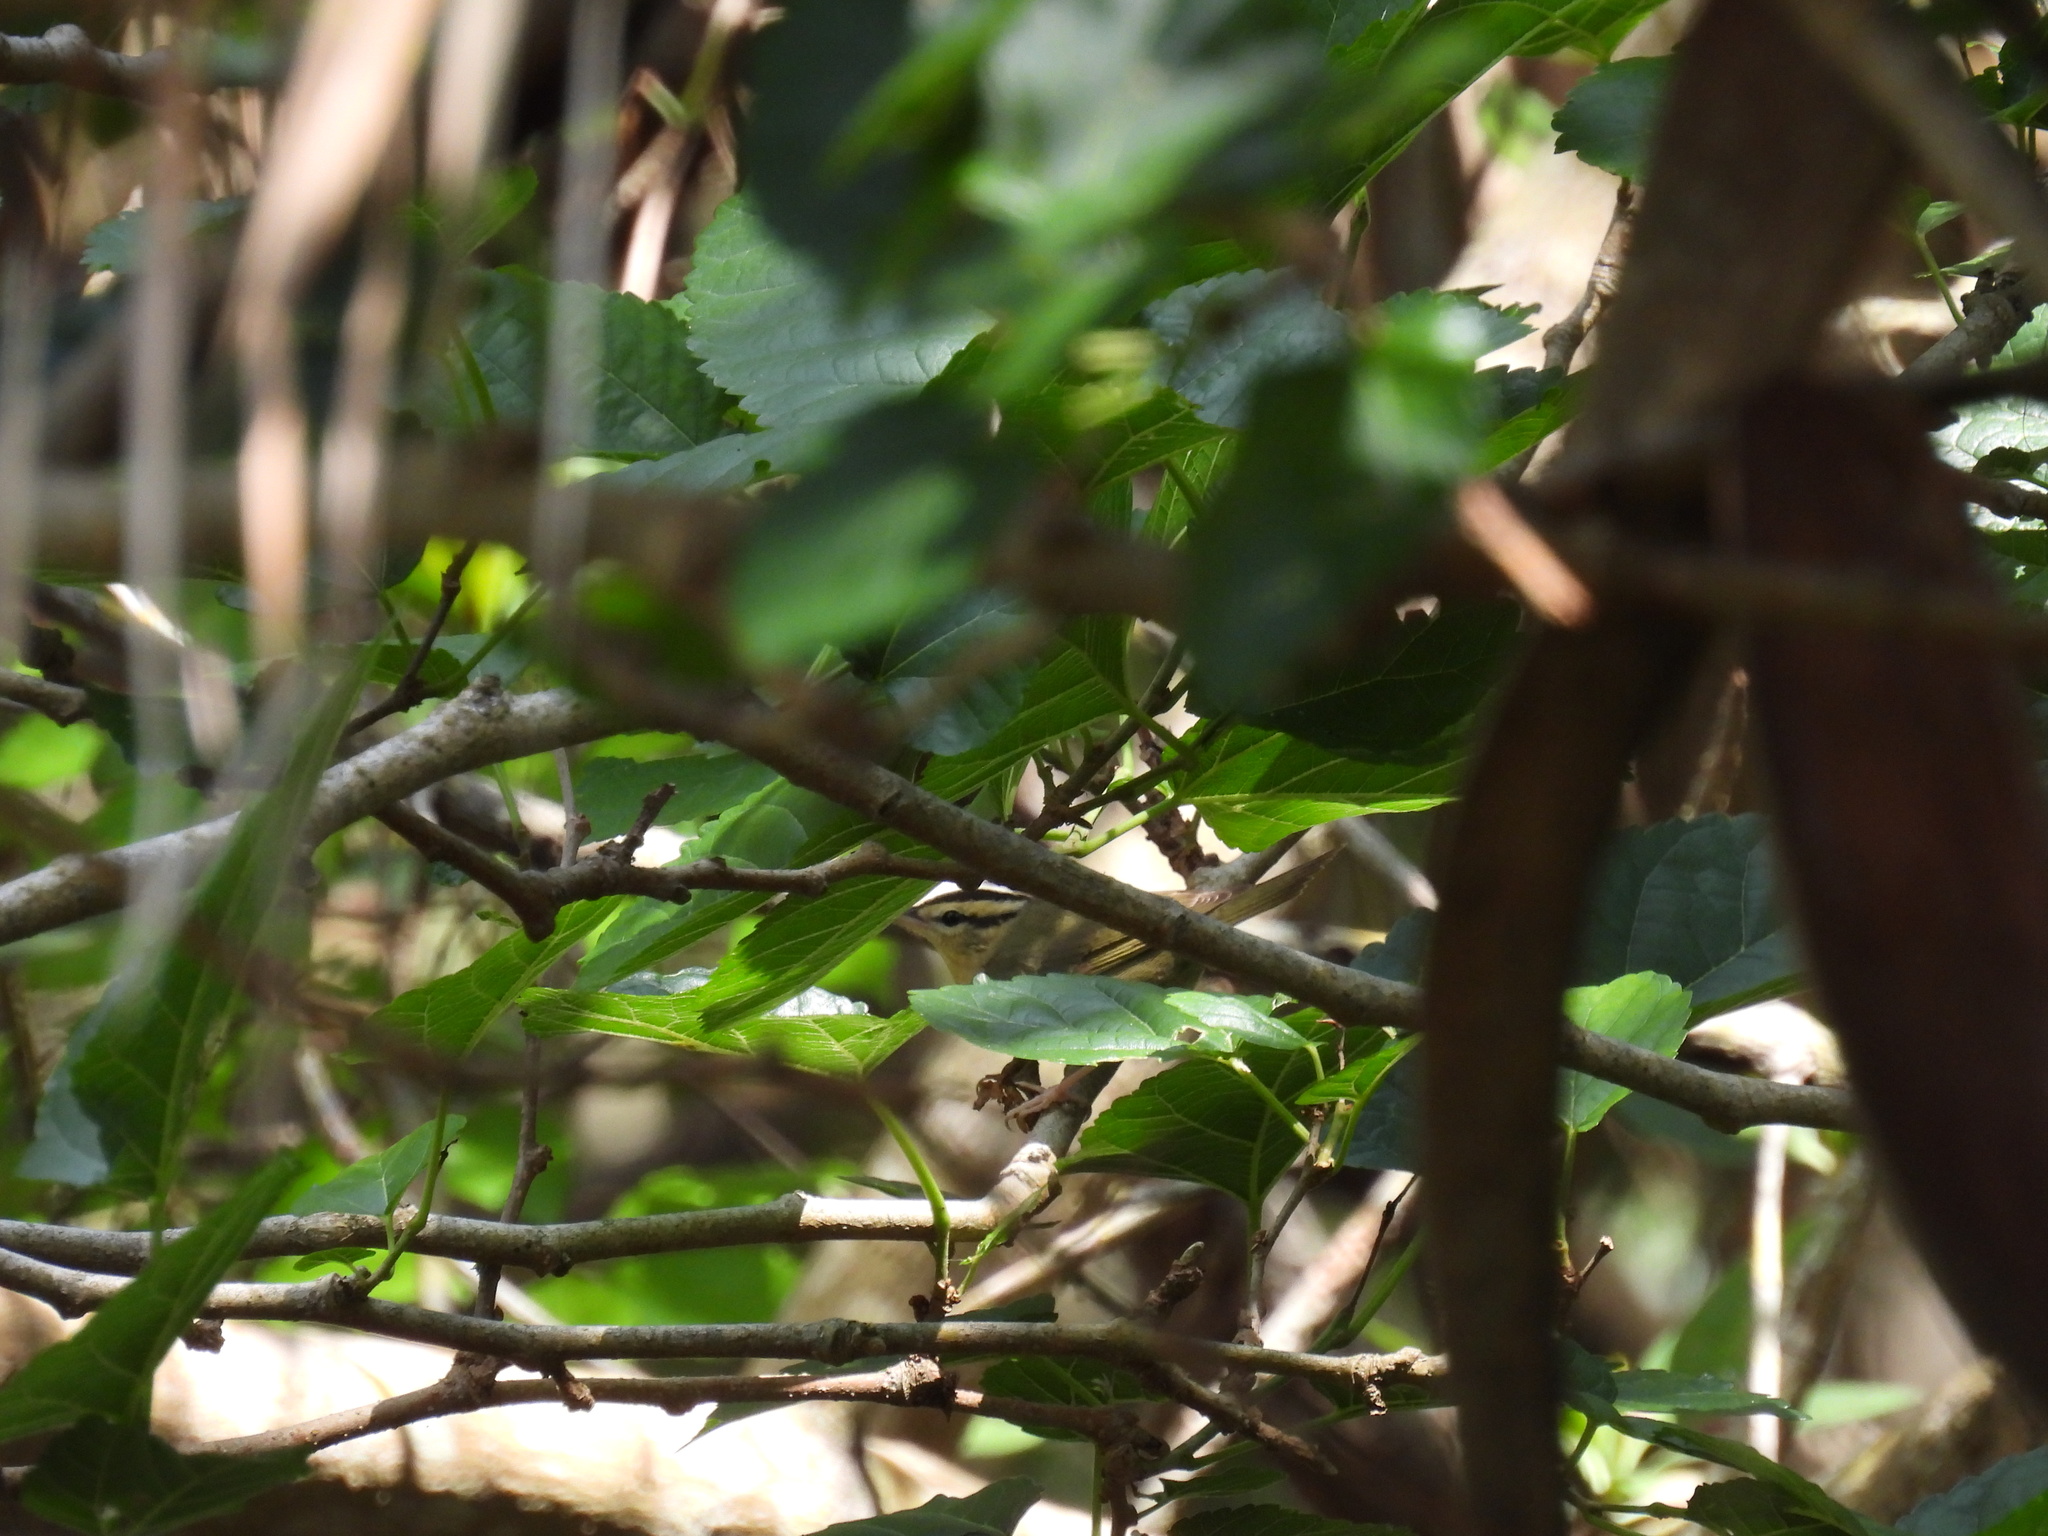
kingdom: Animalia
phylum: Chordata
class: Aves
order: Passeriformes
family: Parulidae
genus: Helmitheros
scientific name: Helmitheros vermivorum
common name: Worm-eating warbler
